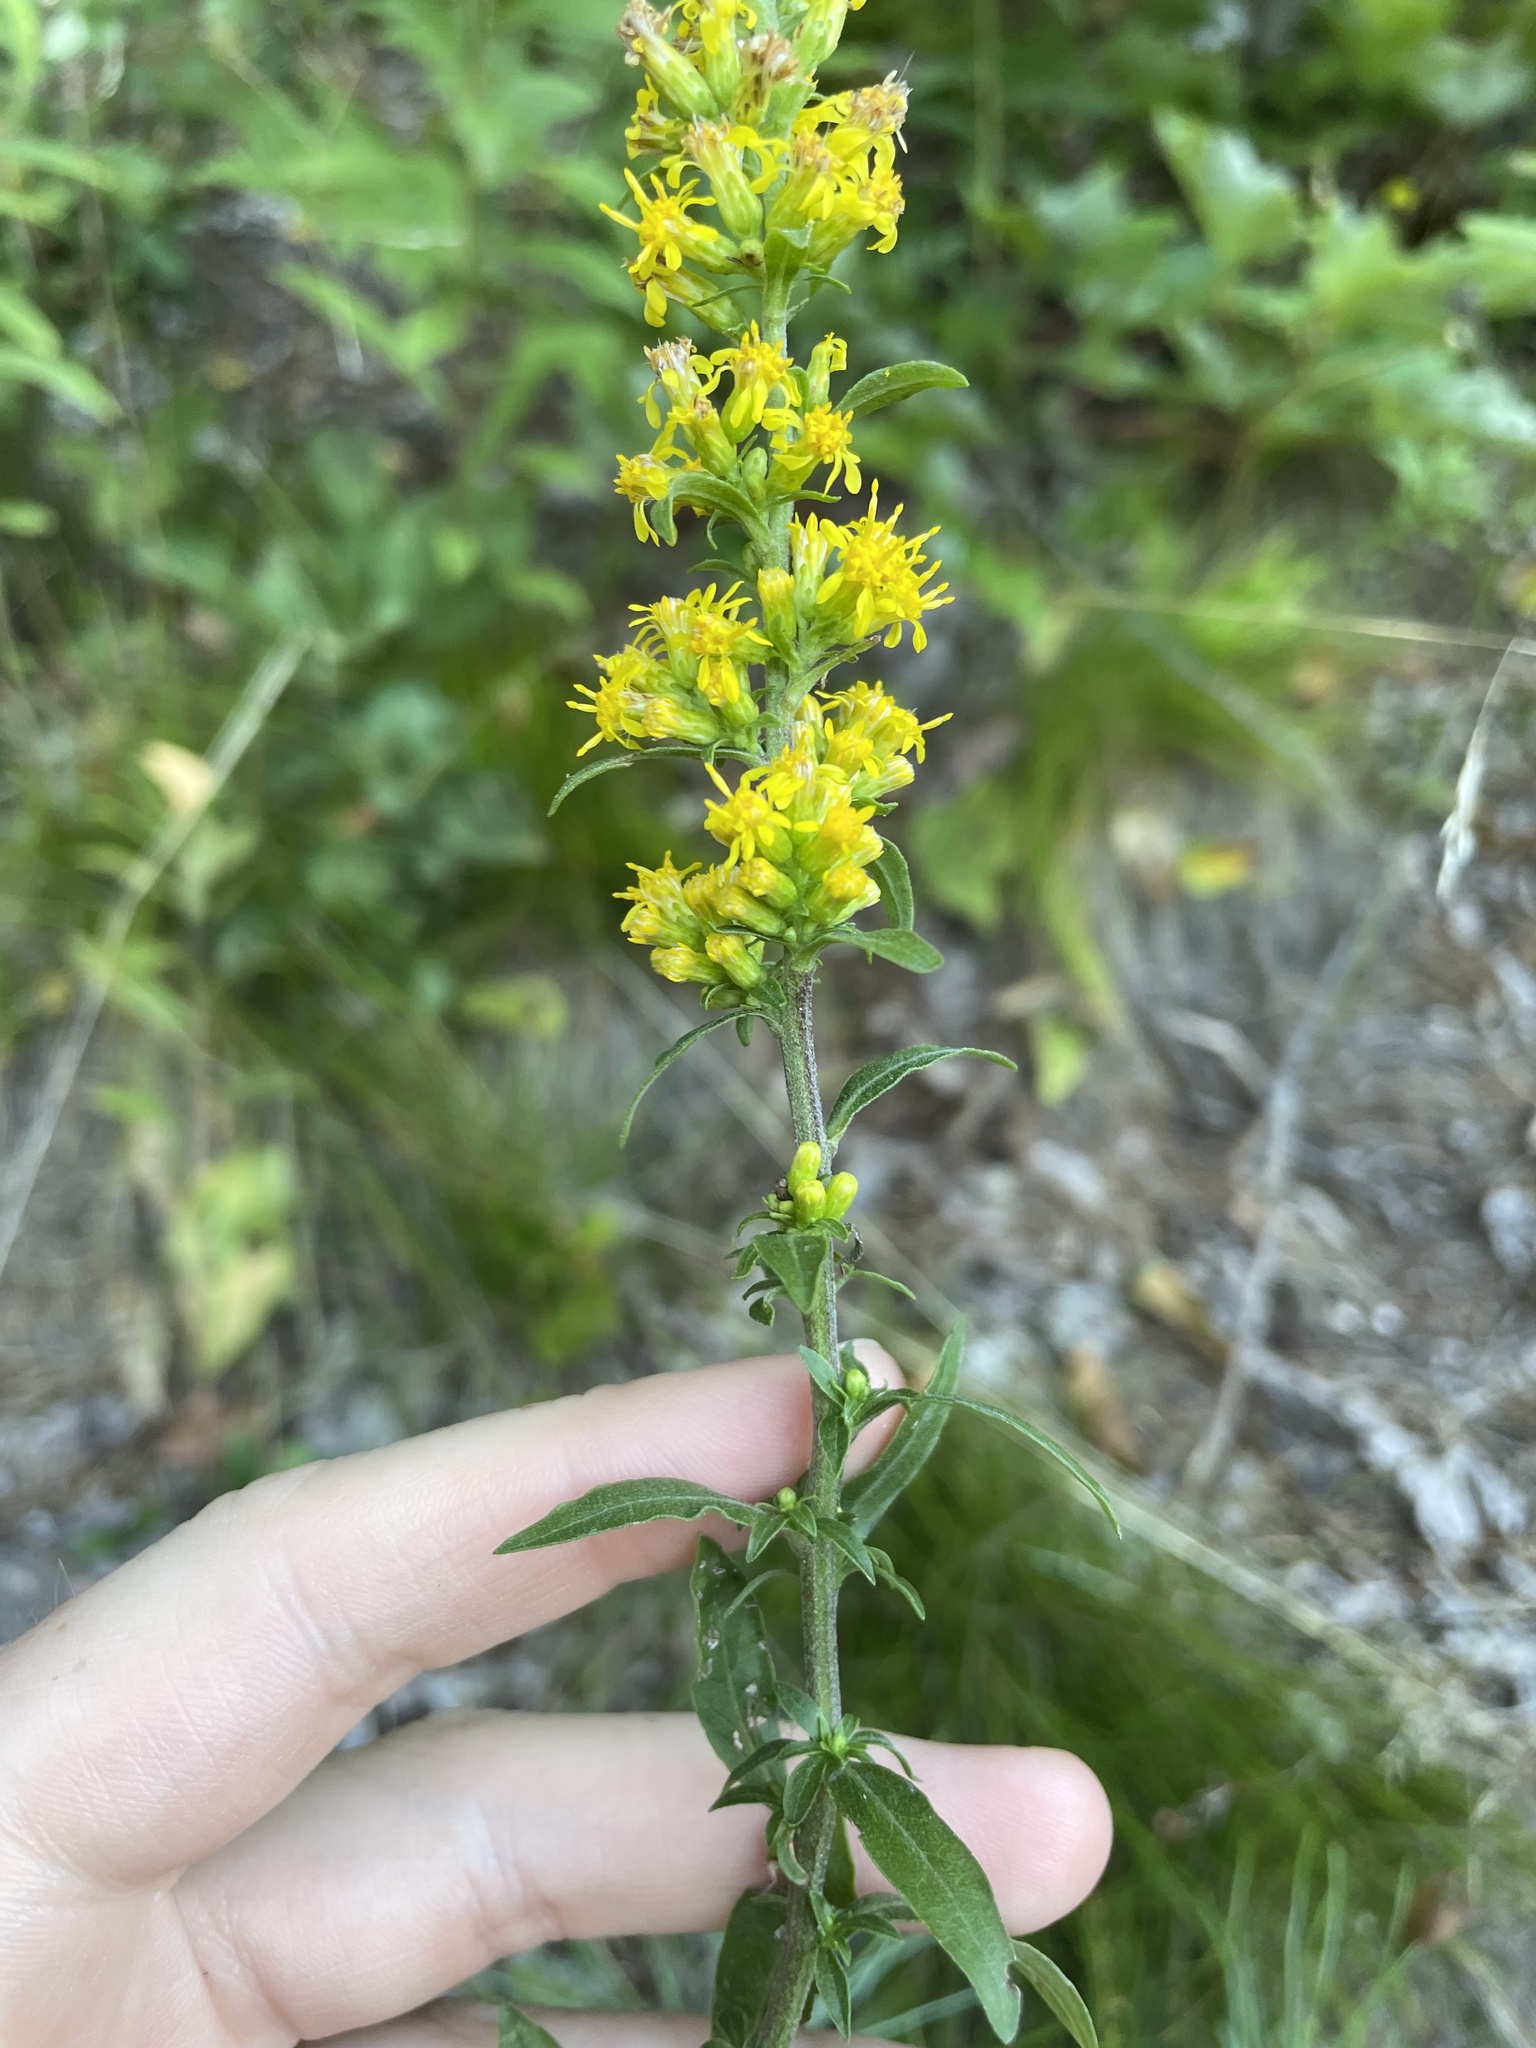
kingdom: Plantae
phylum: Tracheophyta
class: Magnoliopsida
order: Asterales
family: Asteraceae
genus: Solidago
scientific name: Solidago hispida
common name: Hairy goldenrod
